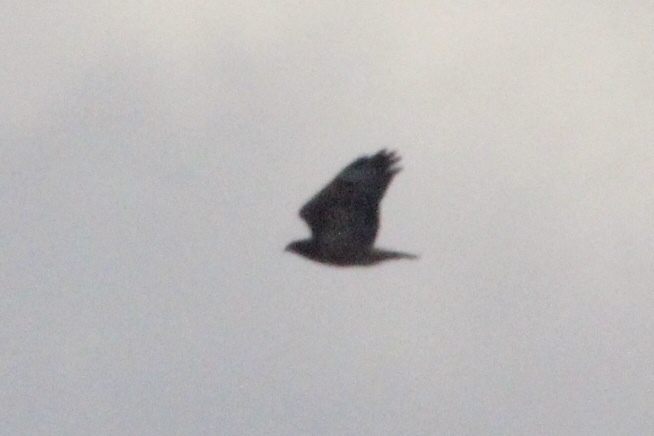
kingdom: Animalia
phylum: Chordata
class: Aves
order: Accipitriformes
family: Accipitridae
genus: Buteo
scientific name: Buteo jamaicensis
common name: Red-tailed hawk
